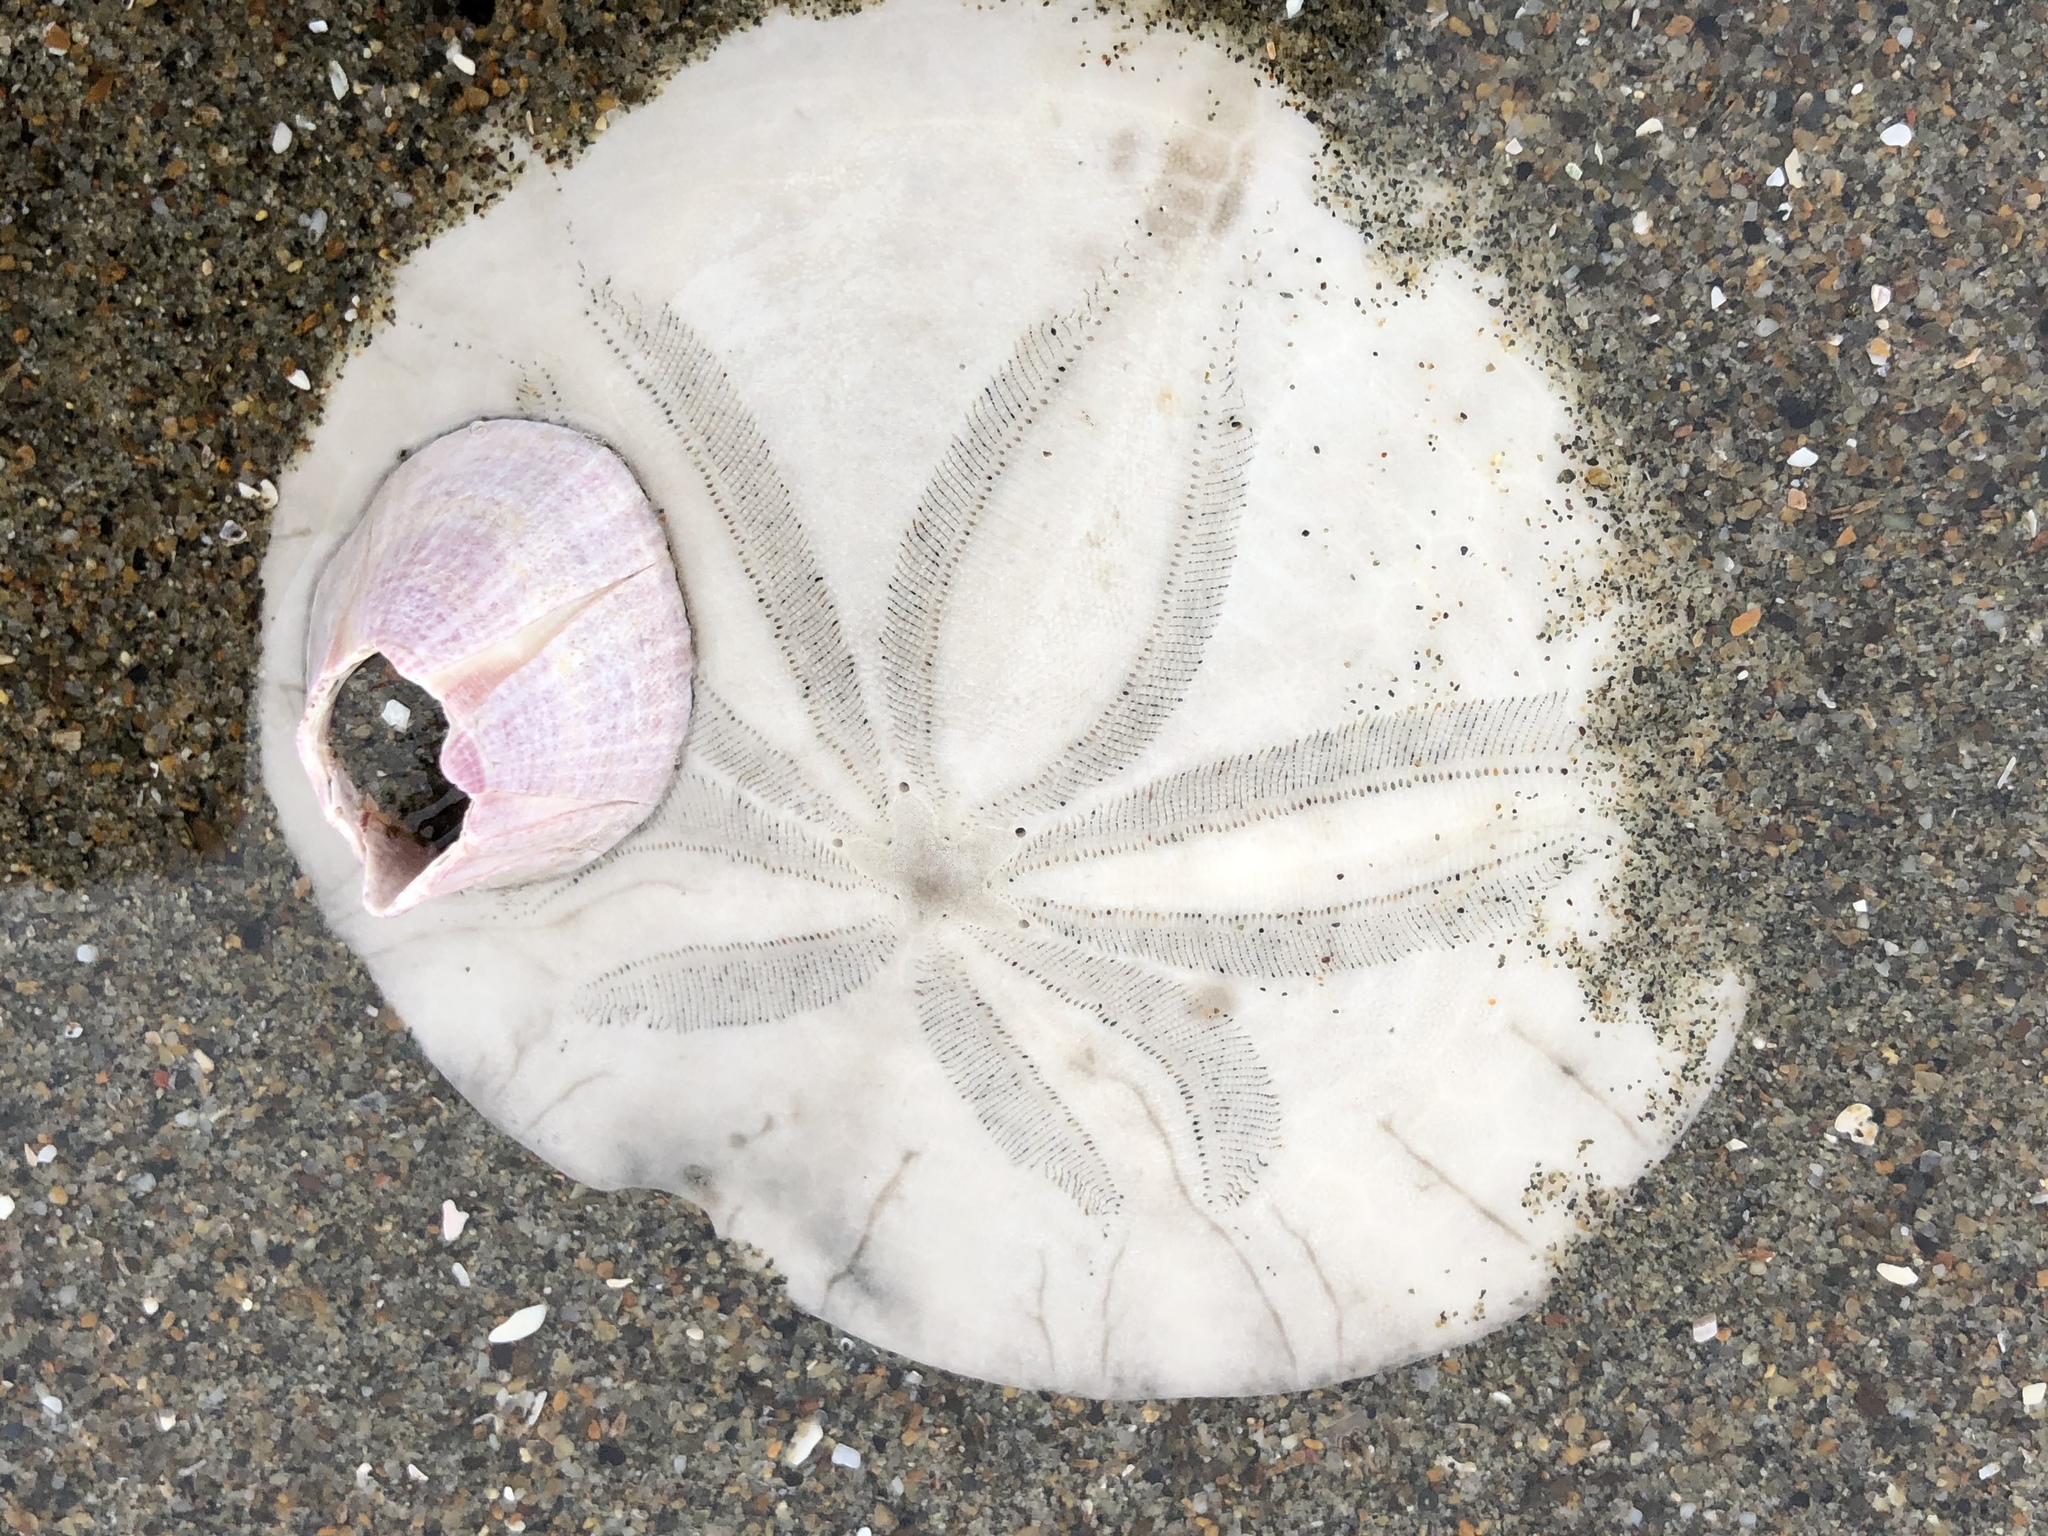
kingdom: Animalia
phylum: Arthropoda
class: Maxillopoda
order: Sessilia
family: Balanidae
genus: Paraconcavus
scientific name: Paraconcavus pacificus
